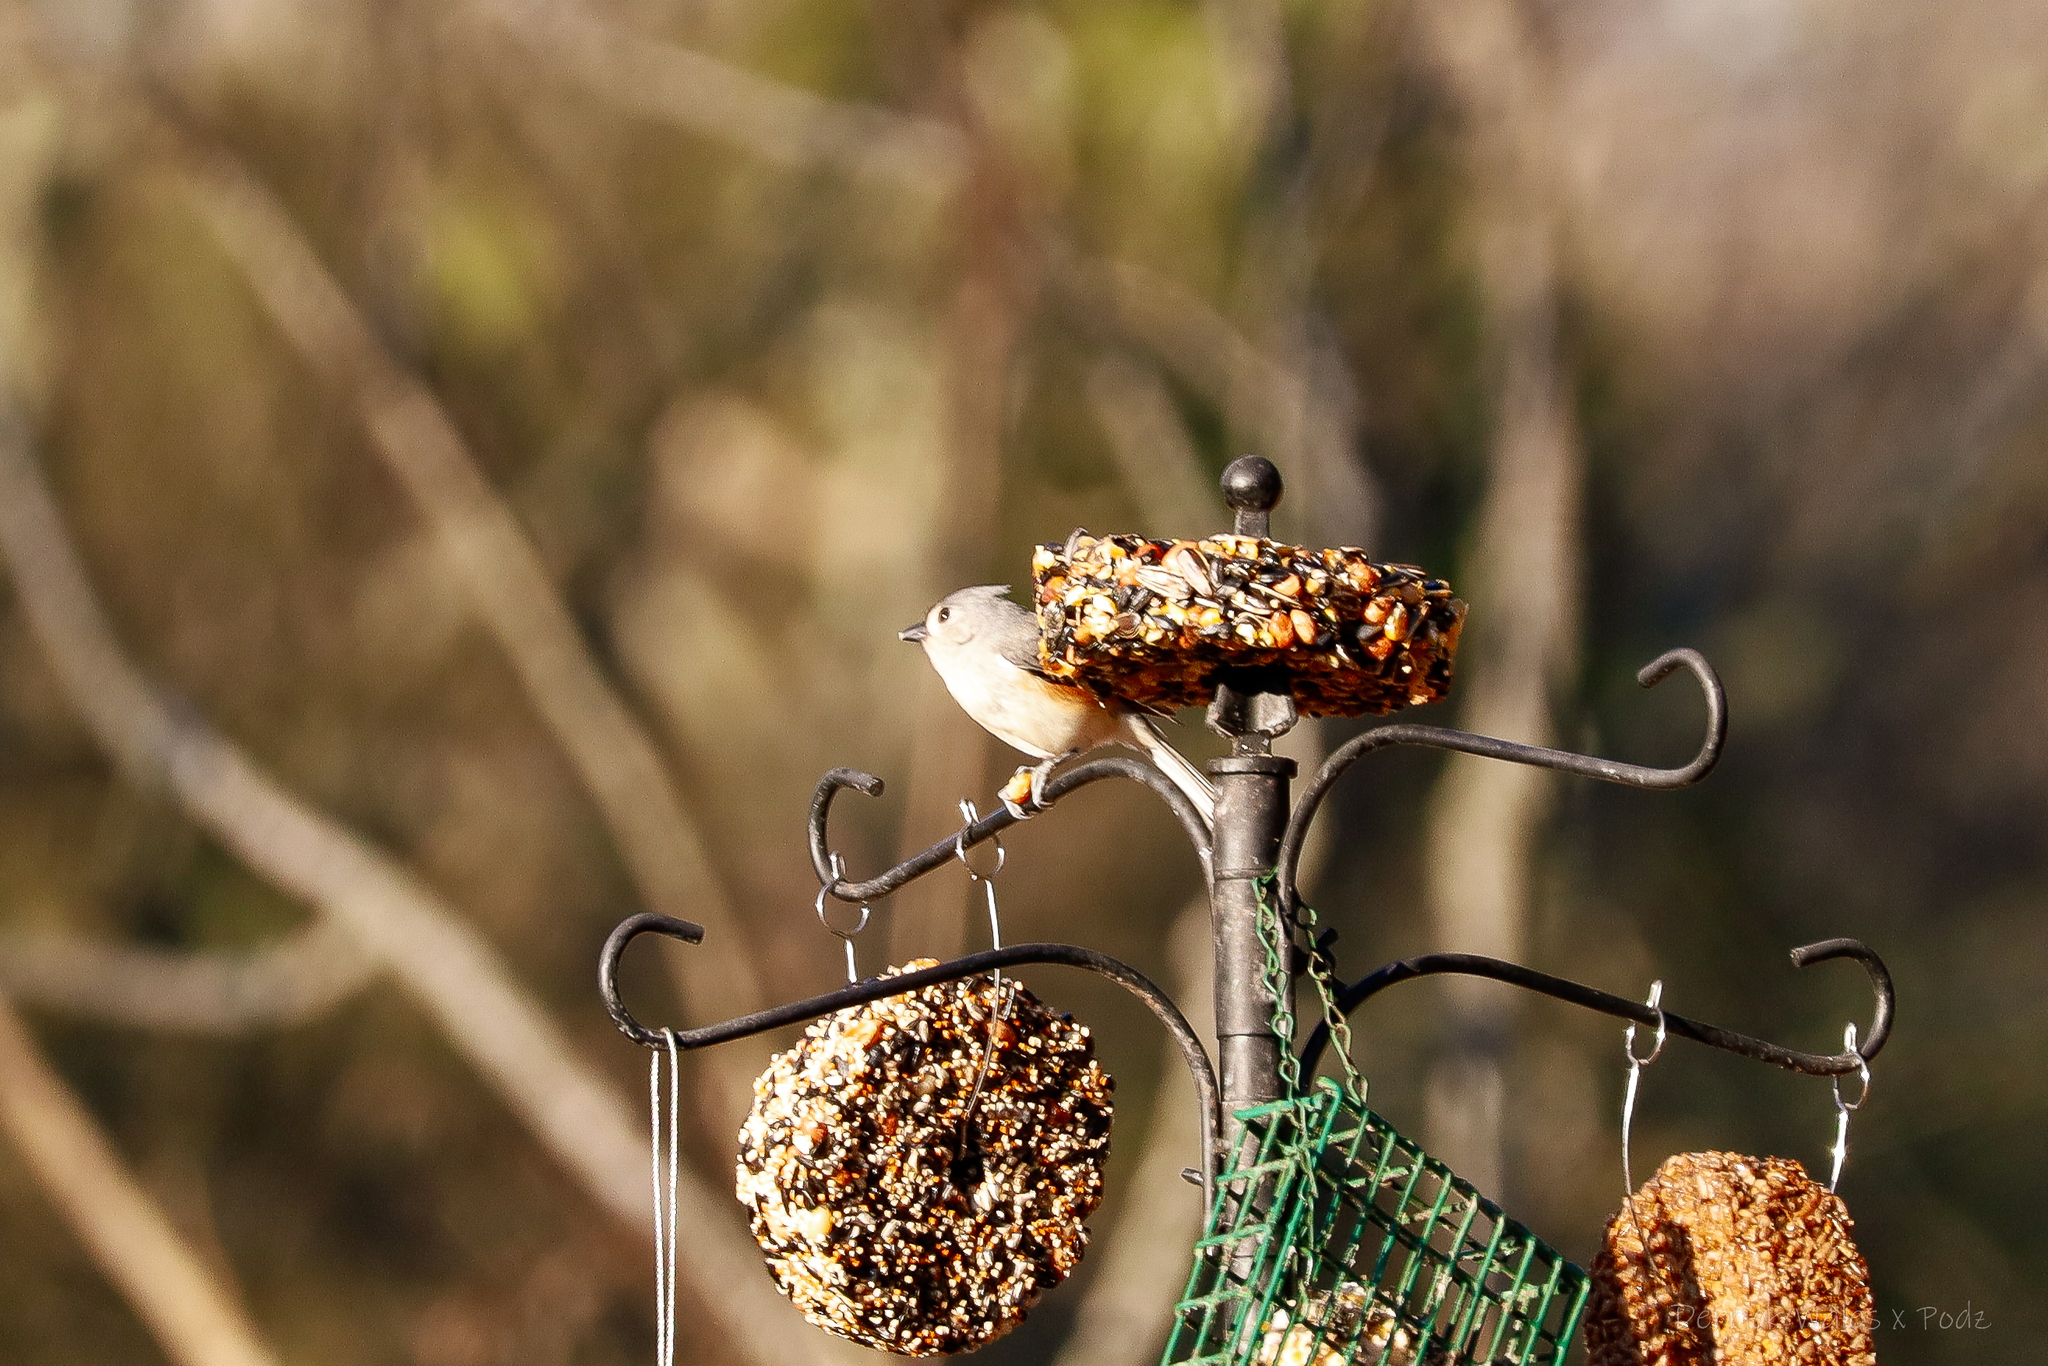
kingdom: Animalia
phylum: Chordata
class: Aves
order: Passeriformes
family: Paridae
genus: Baeolophus
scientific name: Baeolophus bicolor
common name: Tufted titmouse
